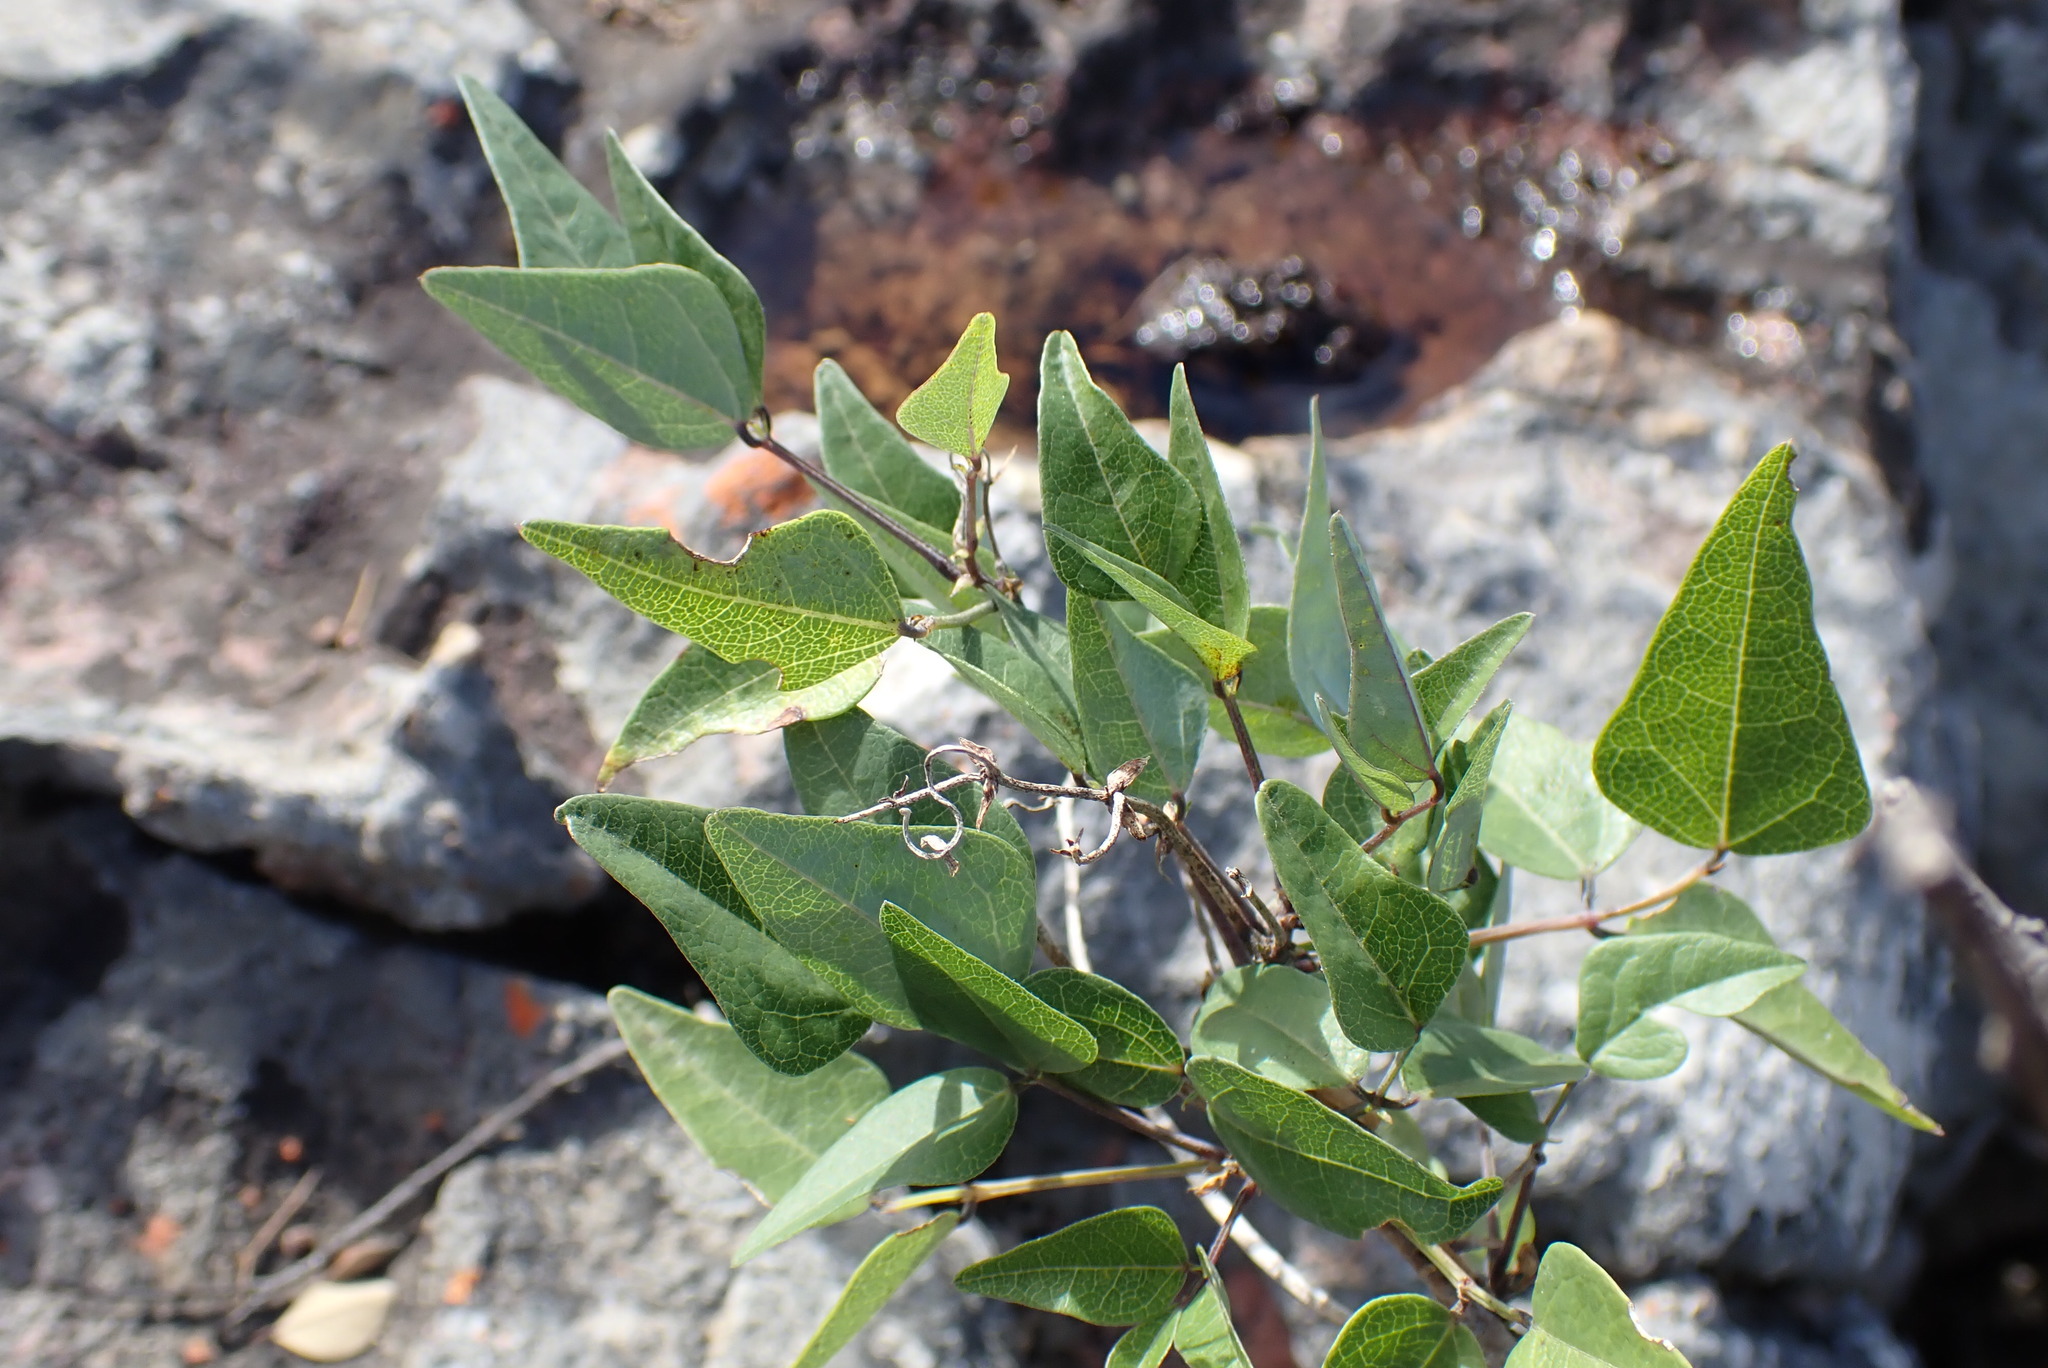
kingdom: Plantae
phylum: Tracheophyta
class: Magnoliopsida
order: Fabales
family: Fabaceae
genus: Dipogon
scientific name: Dipogon lignosus
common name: Okie bean
